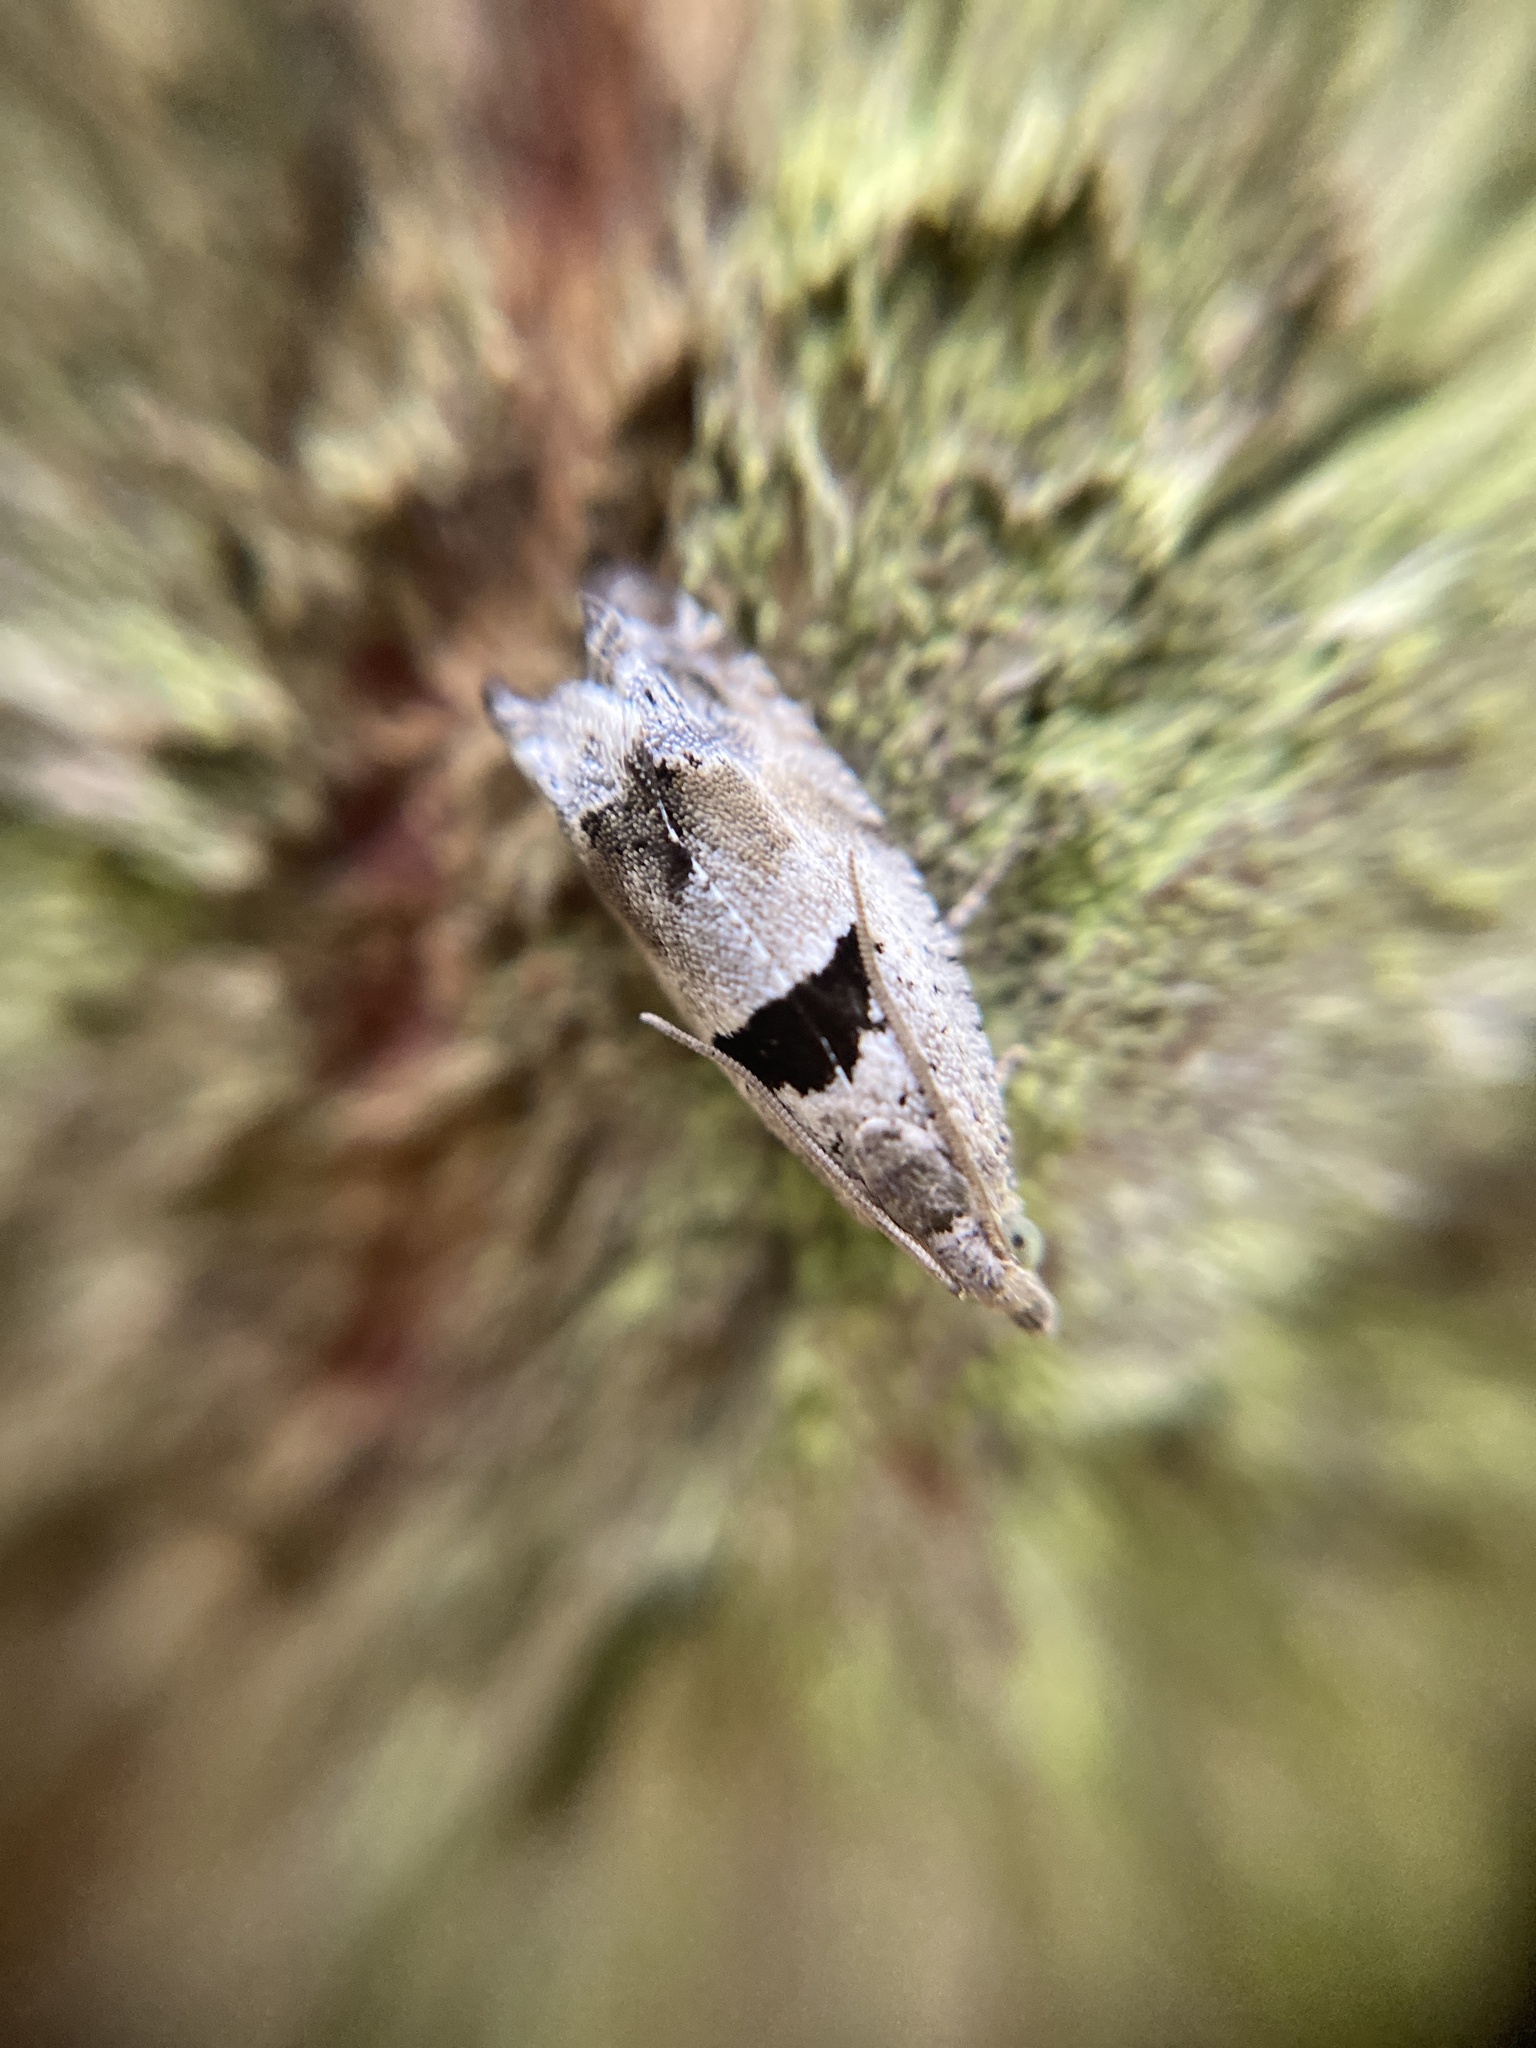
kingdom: Animalia
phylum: Arthropoda
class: Insecta
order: Lepidoptera
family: Tortricidae
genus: Epinotia
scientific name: Epinotia ramella
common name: Small birch bell
